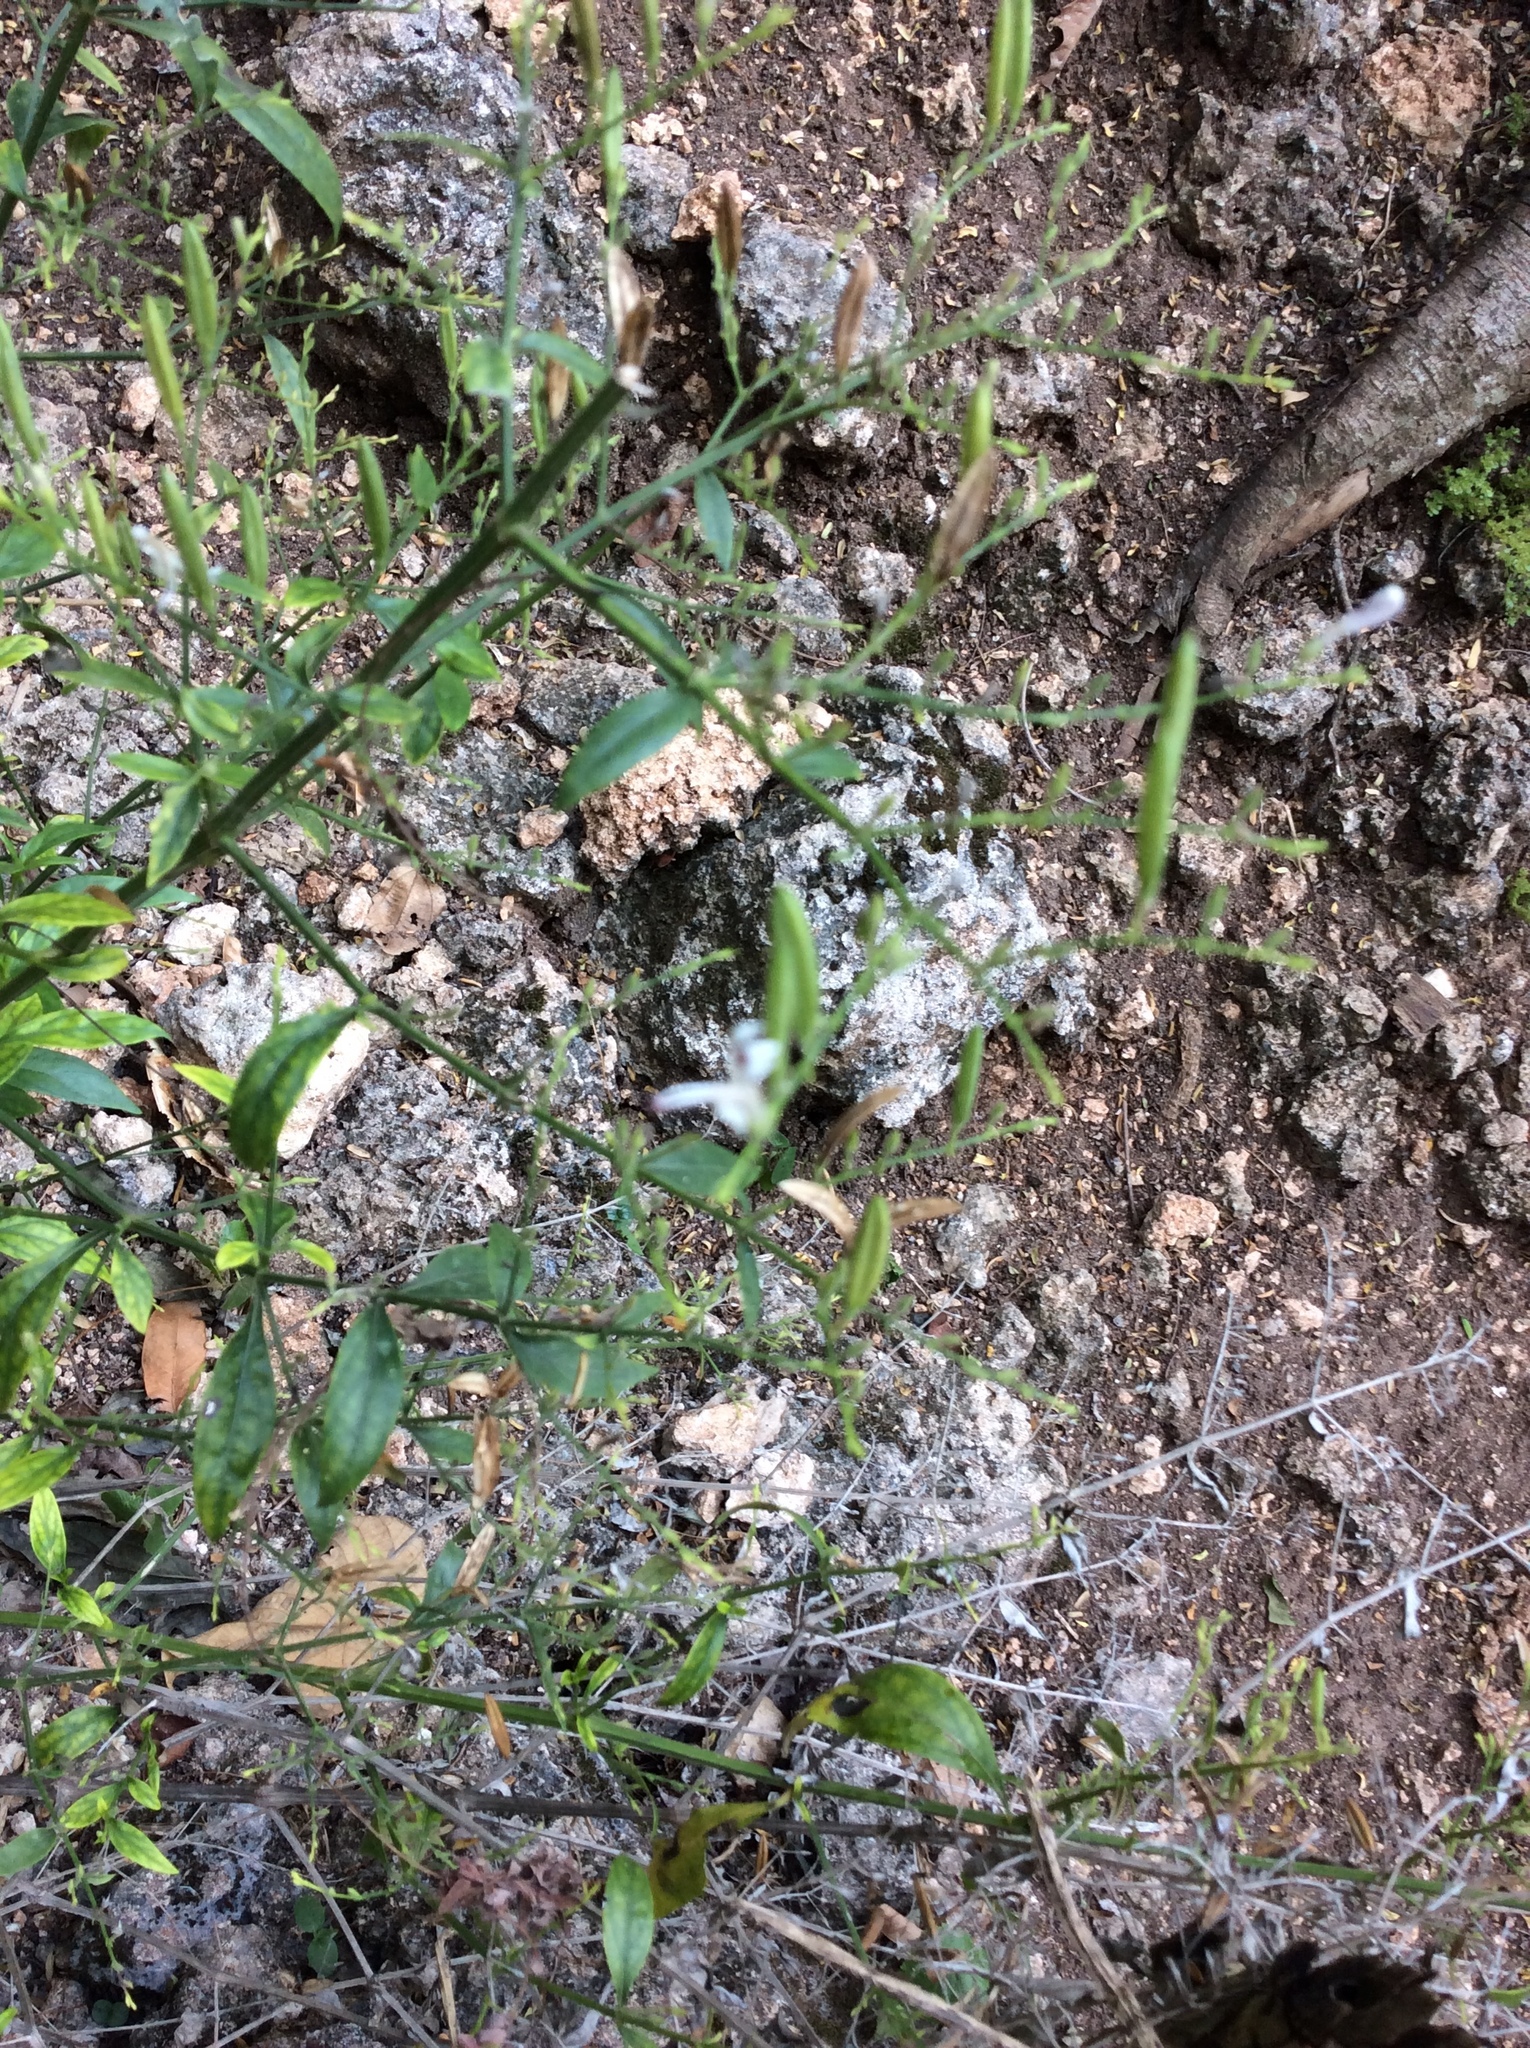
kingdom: Plantae
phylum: Tracheophyta
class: Magnoliopsida
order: Lamiales
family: Acanthaceae
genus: Andrographis
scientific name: Andrographis paniculata
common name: Green chireta
